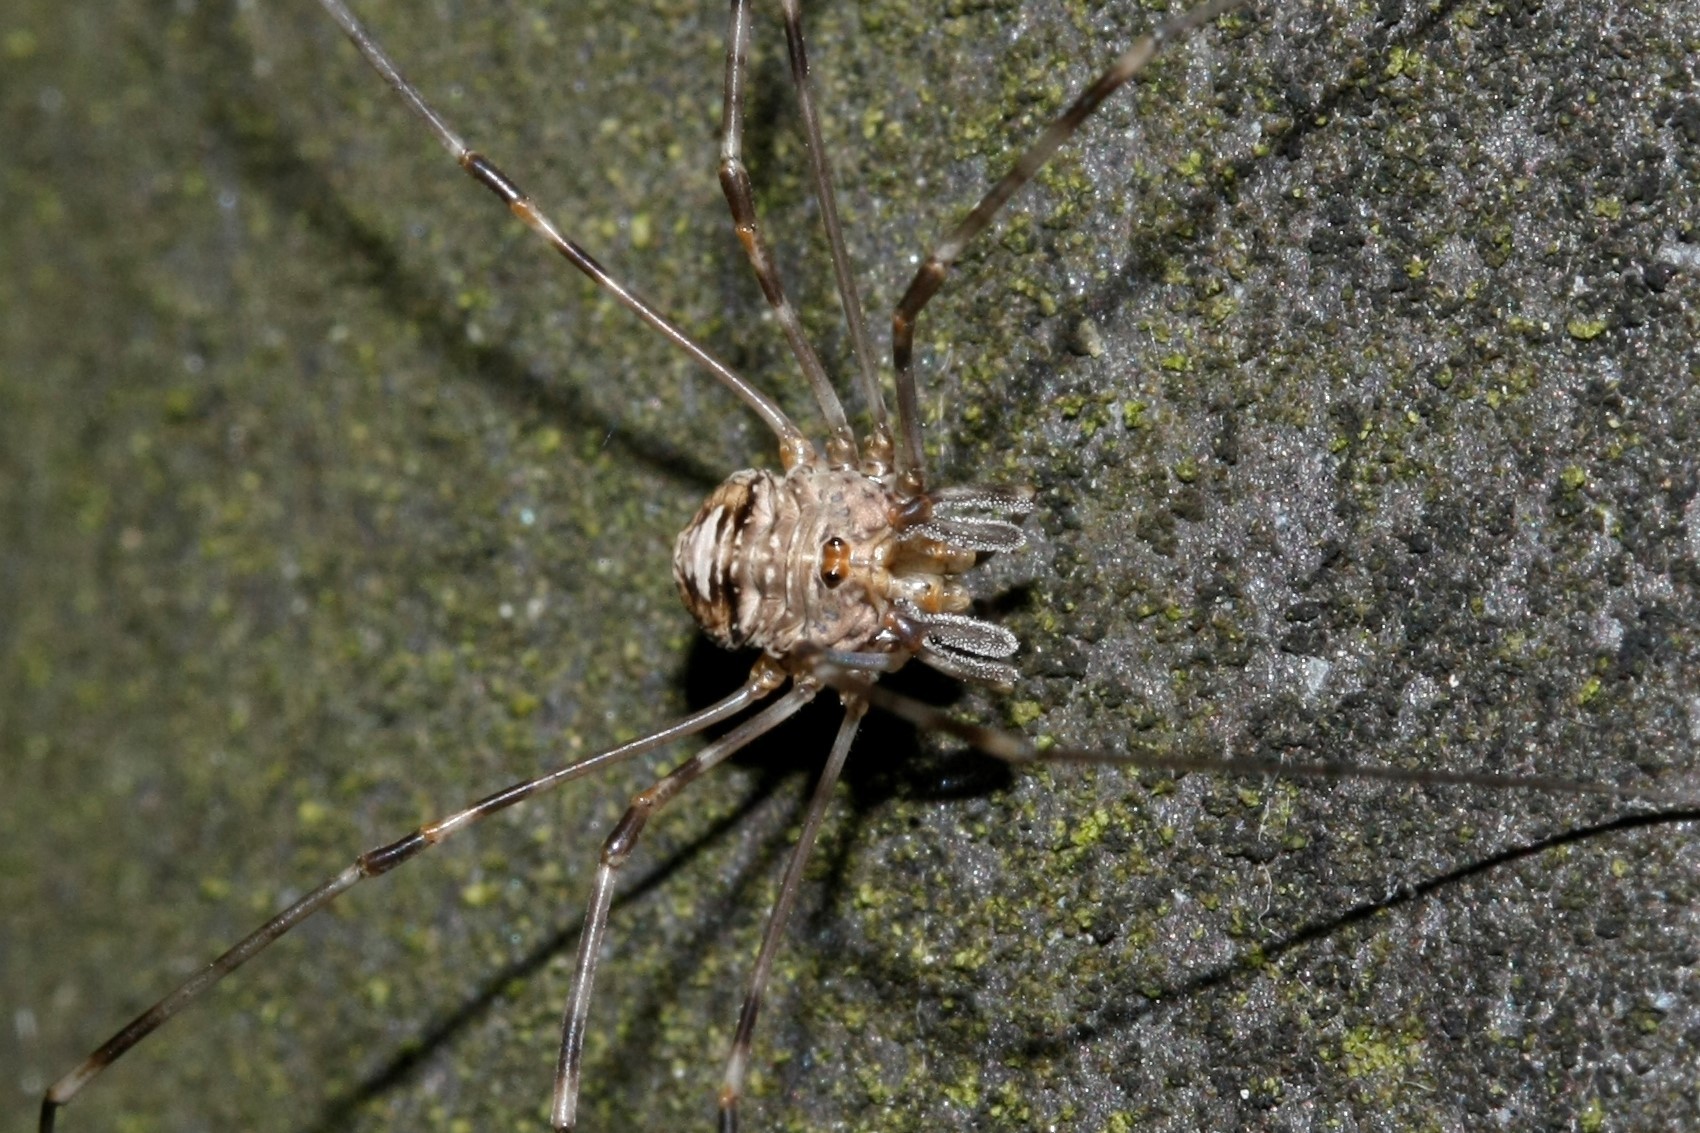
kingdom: Animalia
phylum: Arthropoda
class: Arachnida
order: Opiliones
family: Phalangiidae
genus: Dicranopalpus
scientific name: Dicranopalpus ramosus
